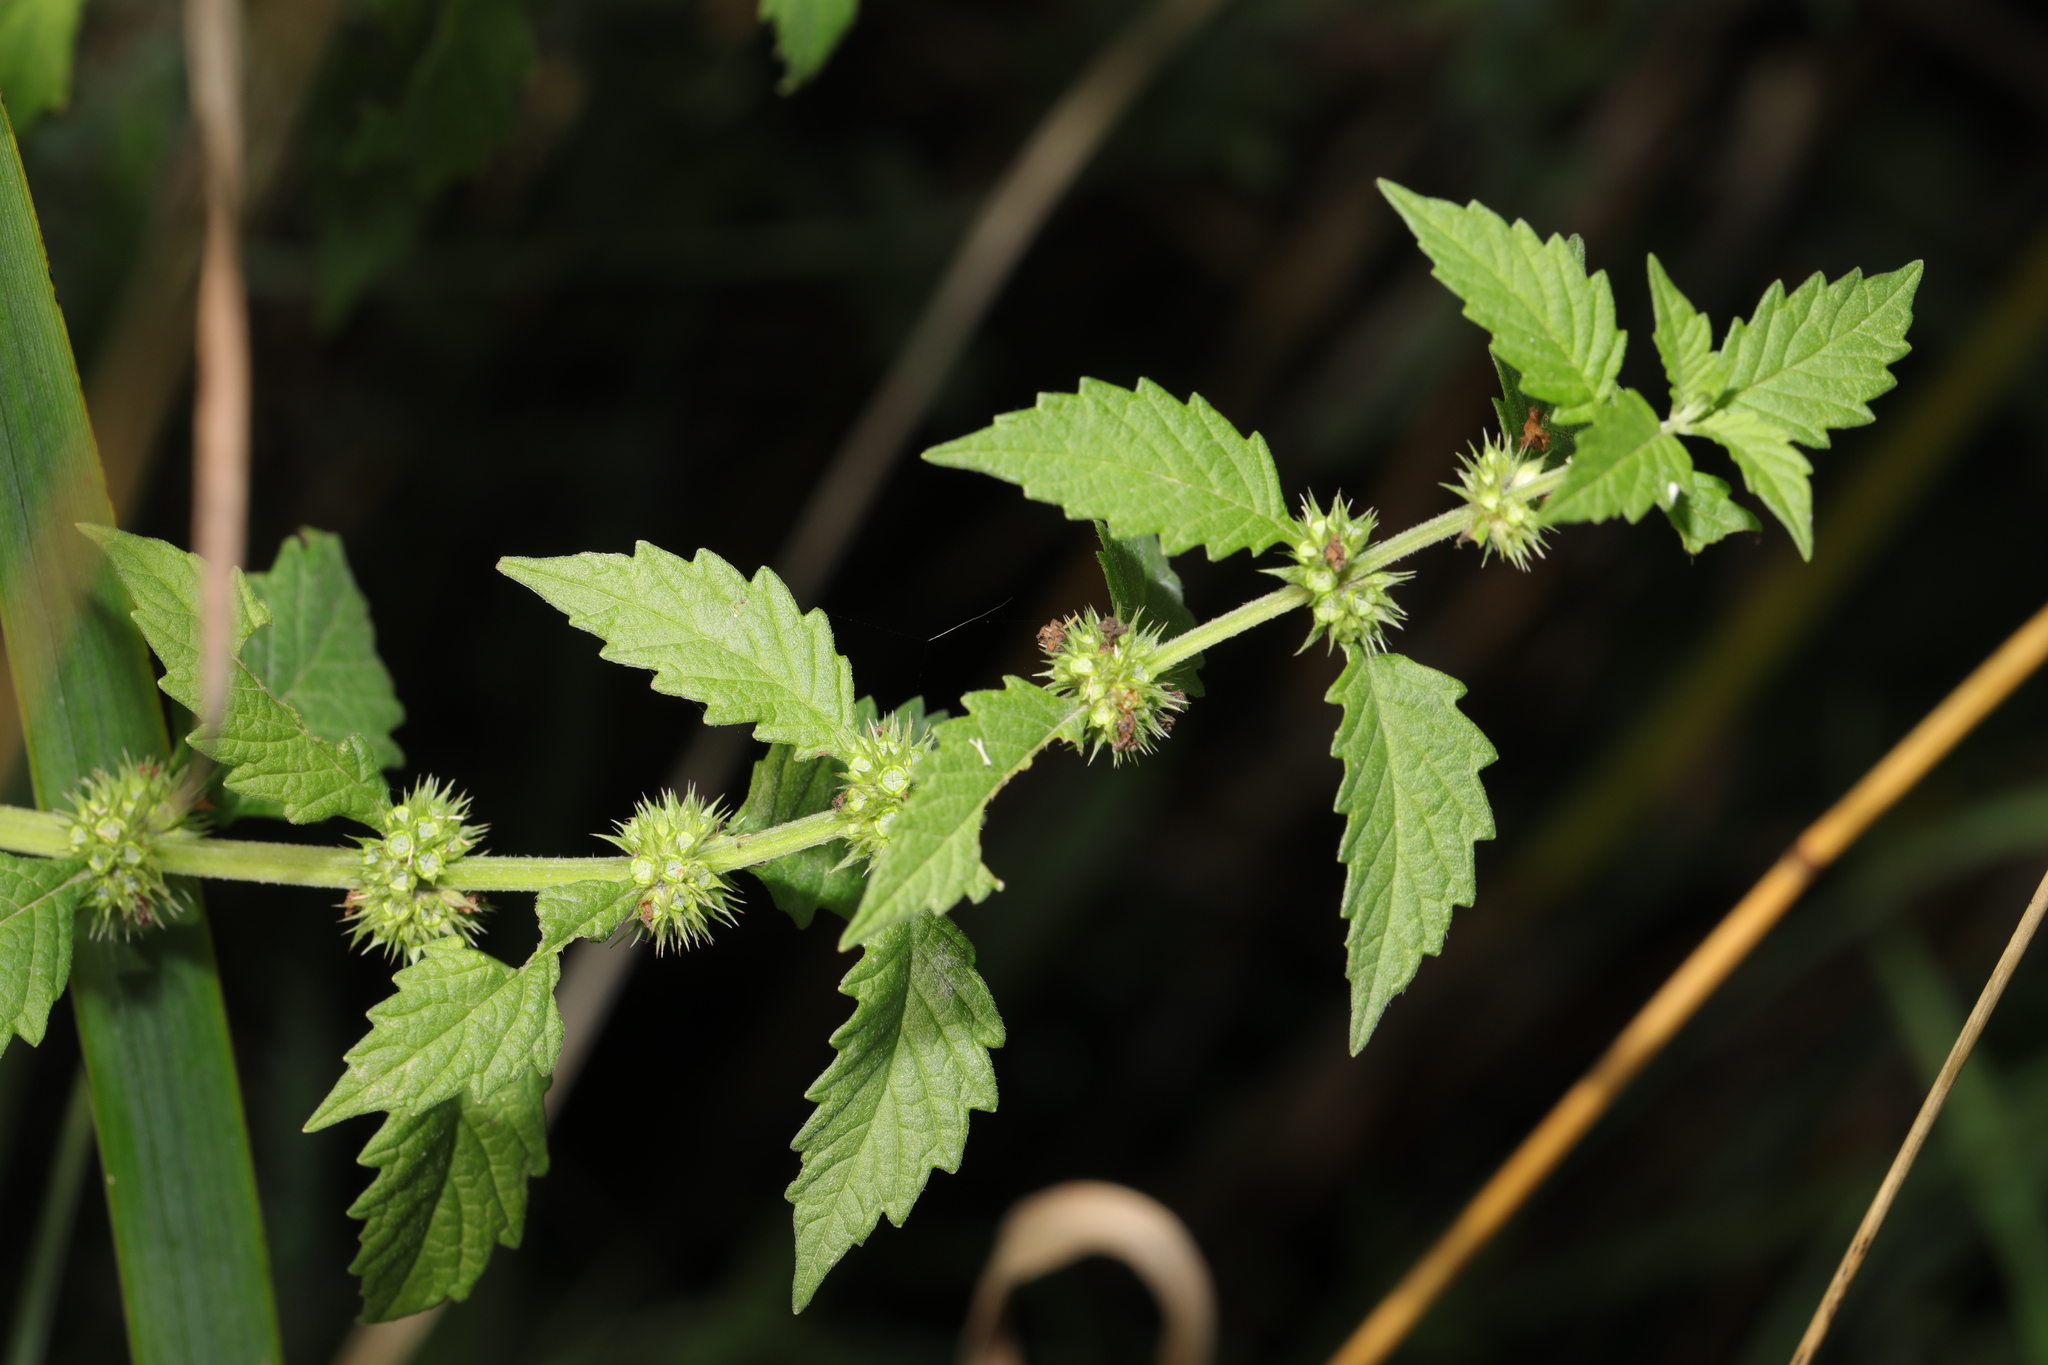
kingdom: Plantae
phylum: Tracheophyta
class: Magnoliopsida
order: Lamiales
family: Lamiaceae
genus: Lycopus
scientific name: Lycopus europaeus
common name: European bugleweed
